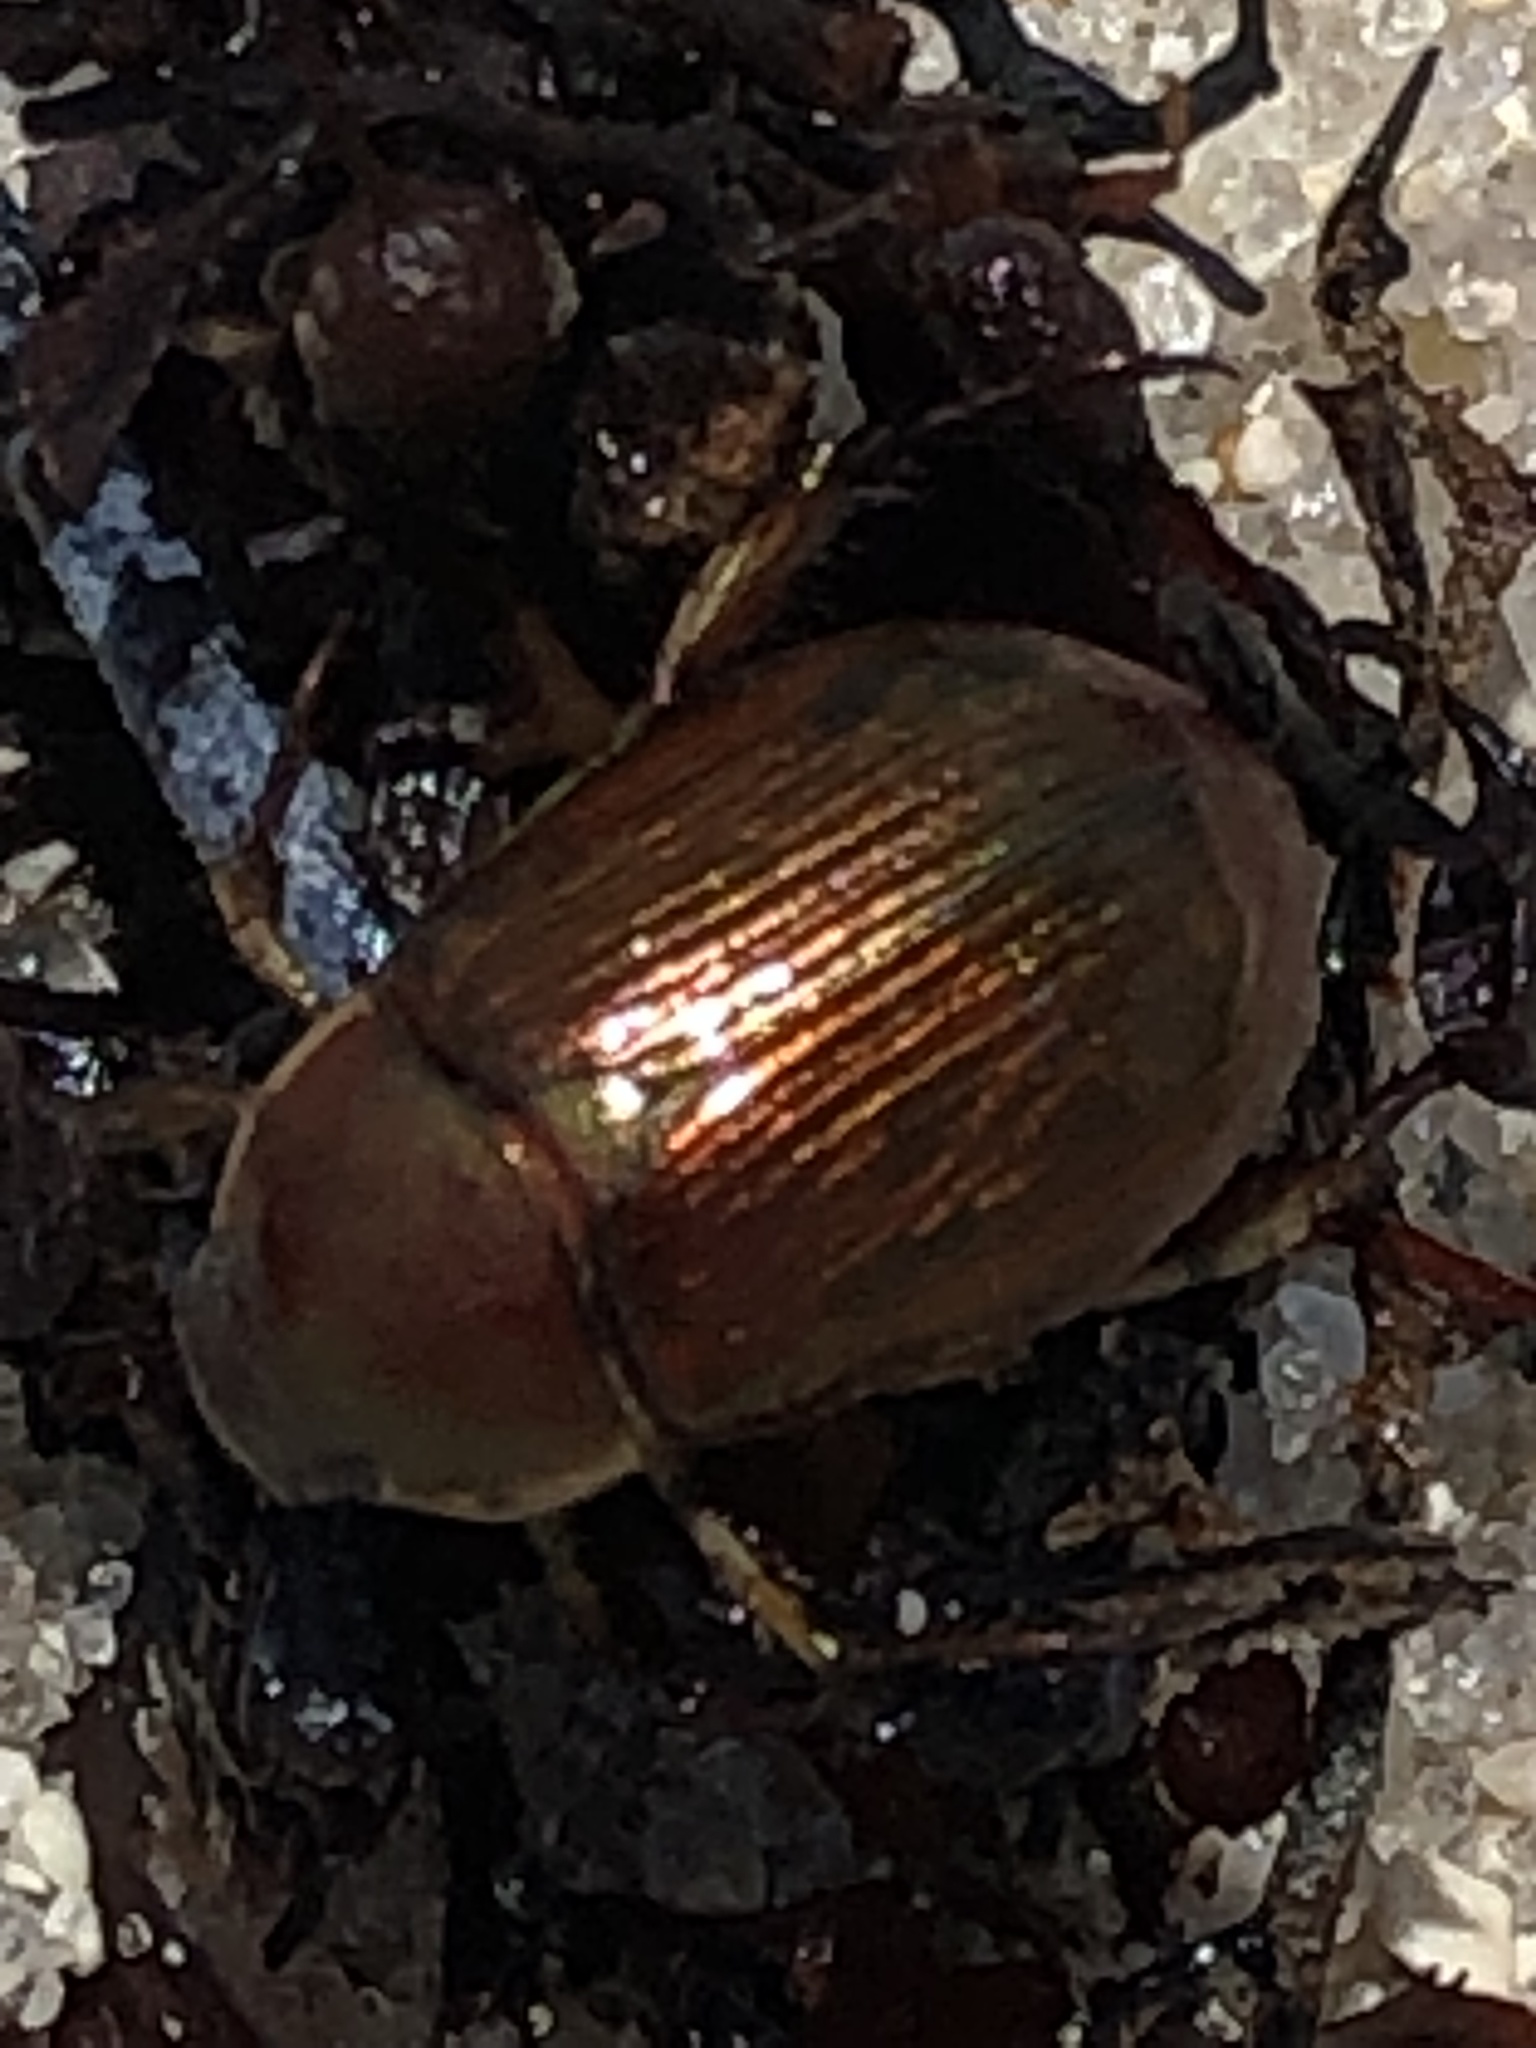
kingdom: Animalia
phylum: Arthropoda
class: Insecta
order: Coleoptera
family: Scarabaeidae
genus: Callistethus
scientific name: Callistethus marginatus
